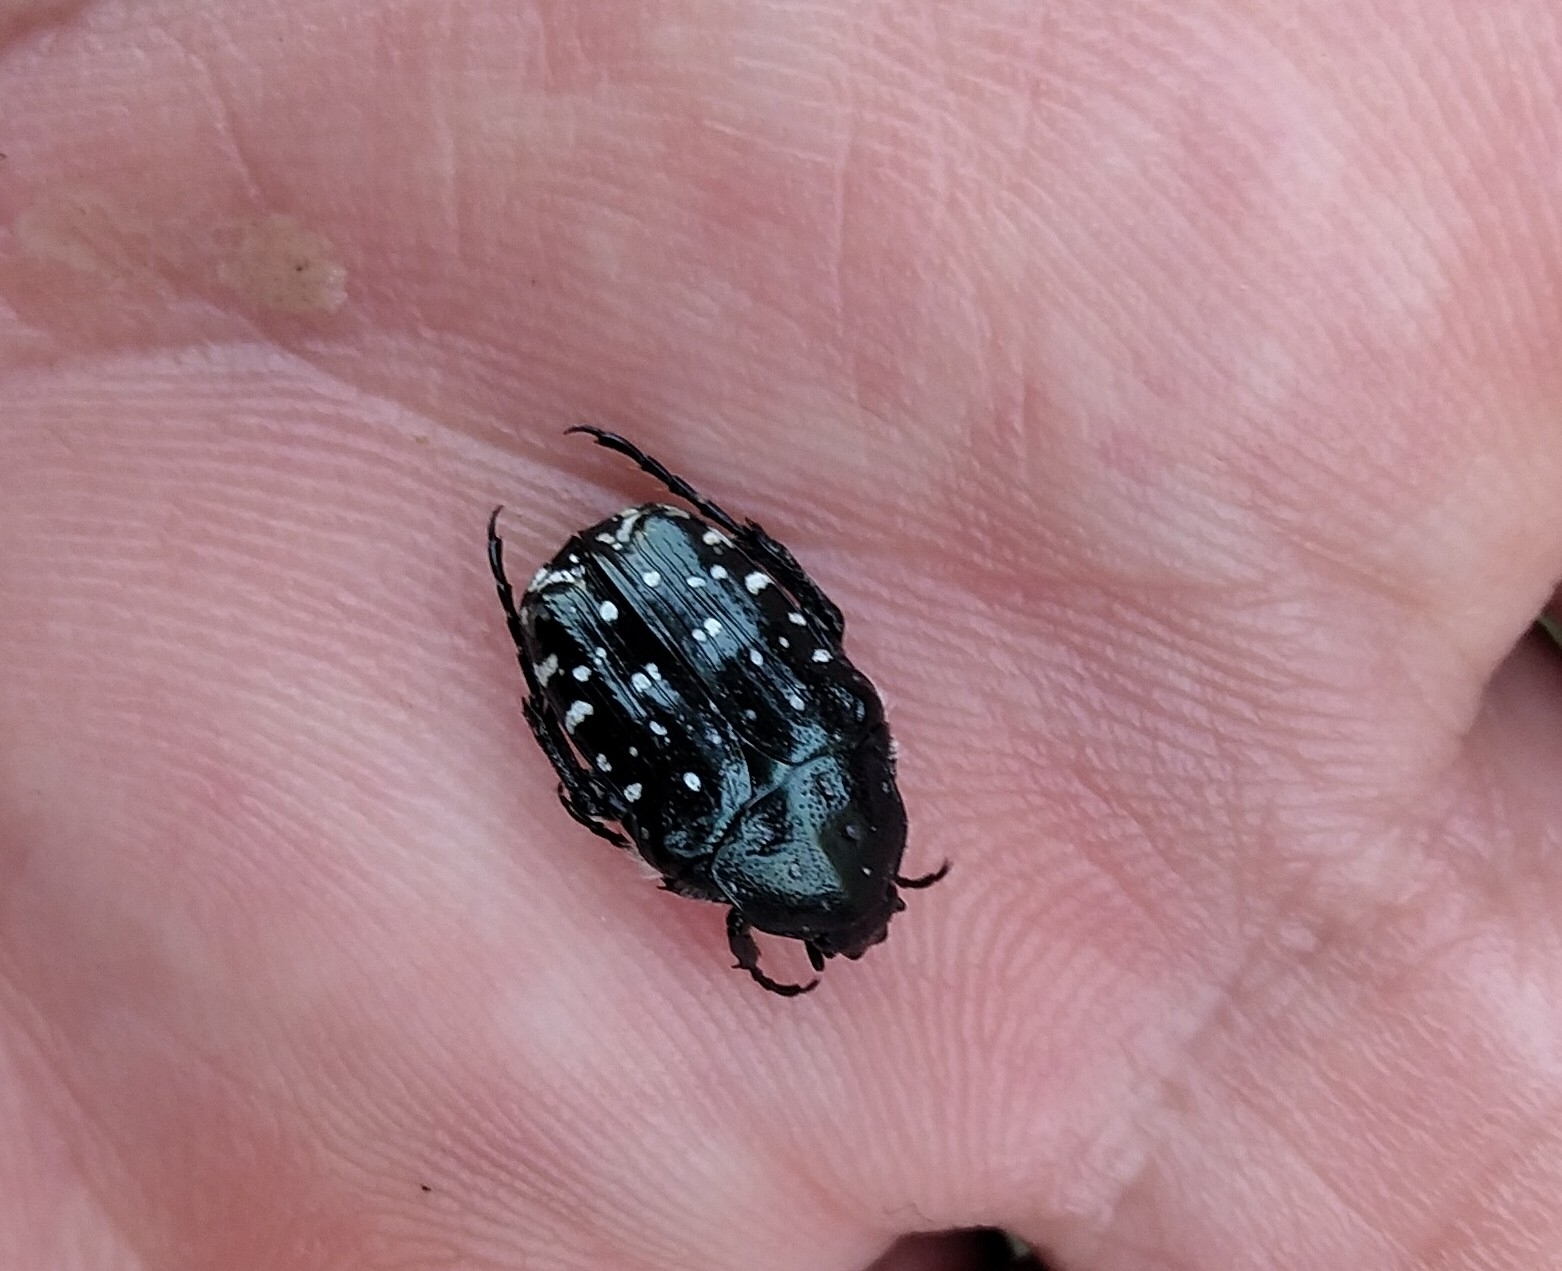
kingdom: Animalia
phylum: Arthropoda
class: Insecta
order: Coleoptera
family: Scarabaeidae
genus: Oxythyrea
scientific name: Oxythyrea funesta
